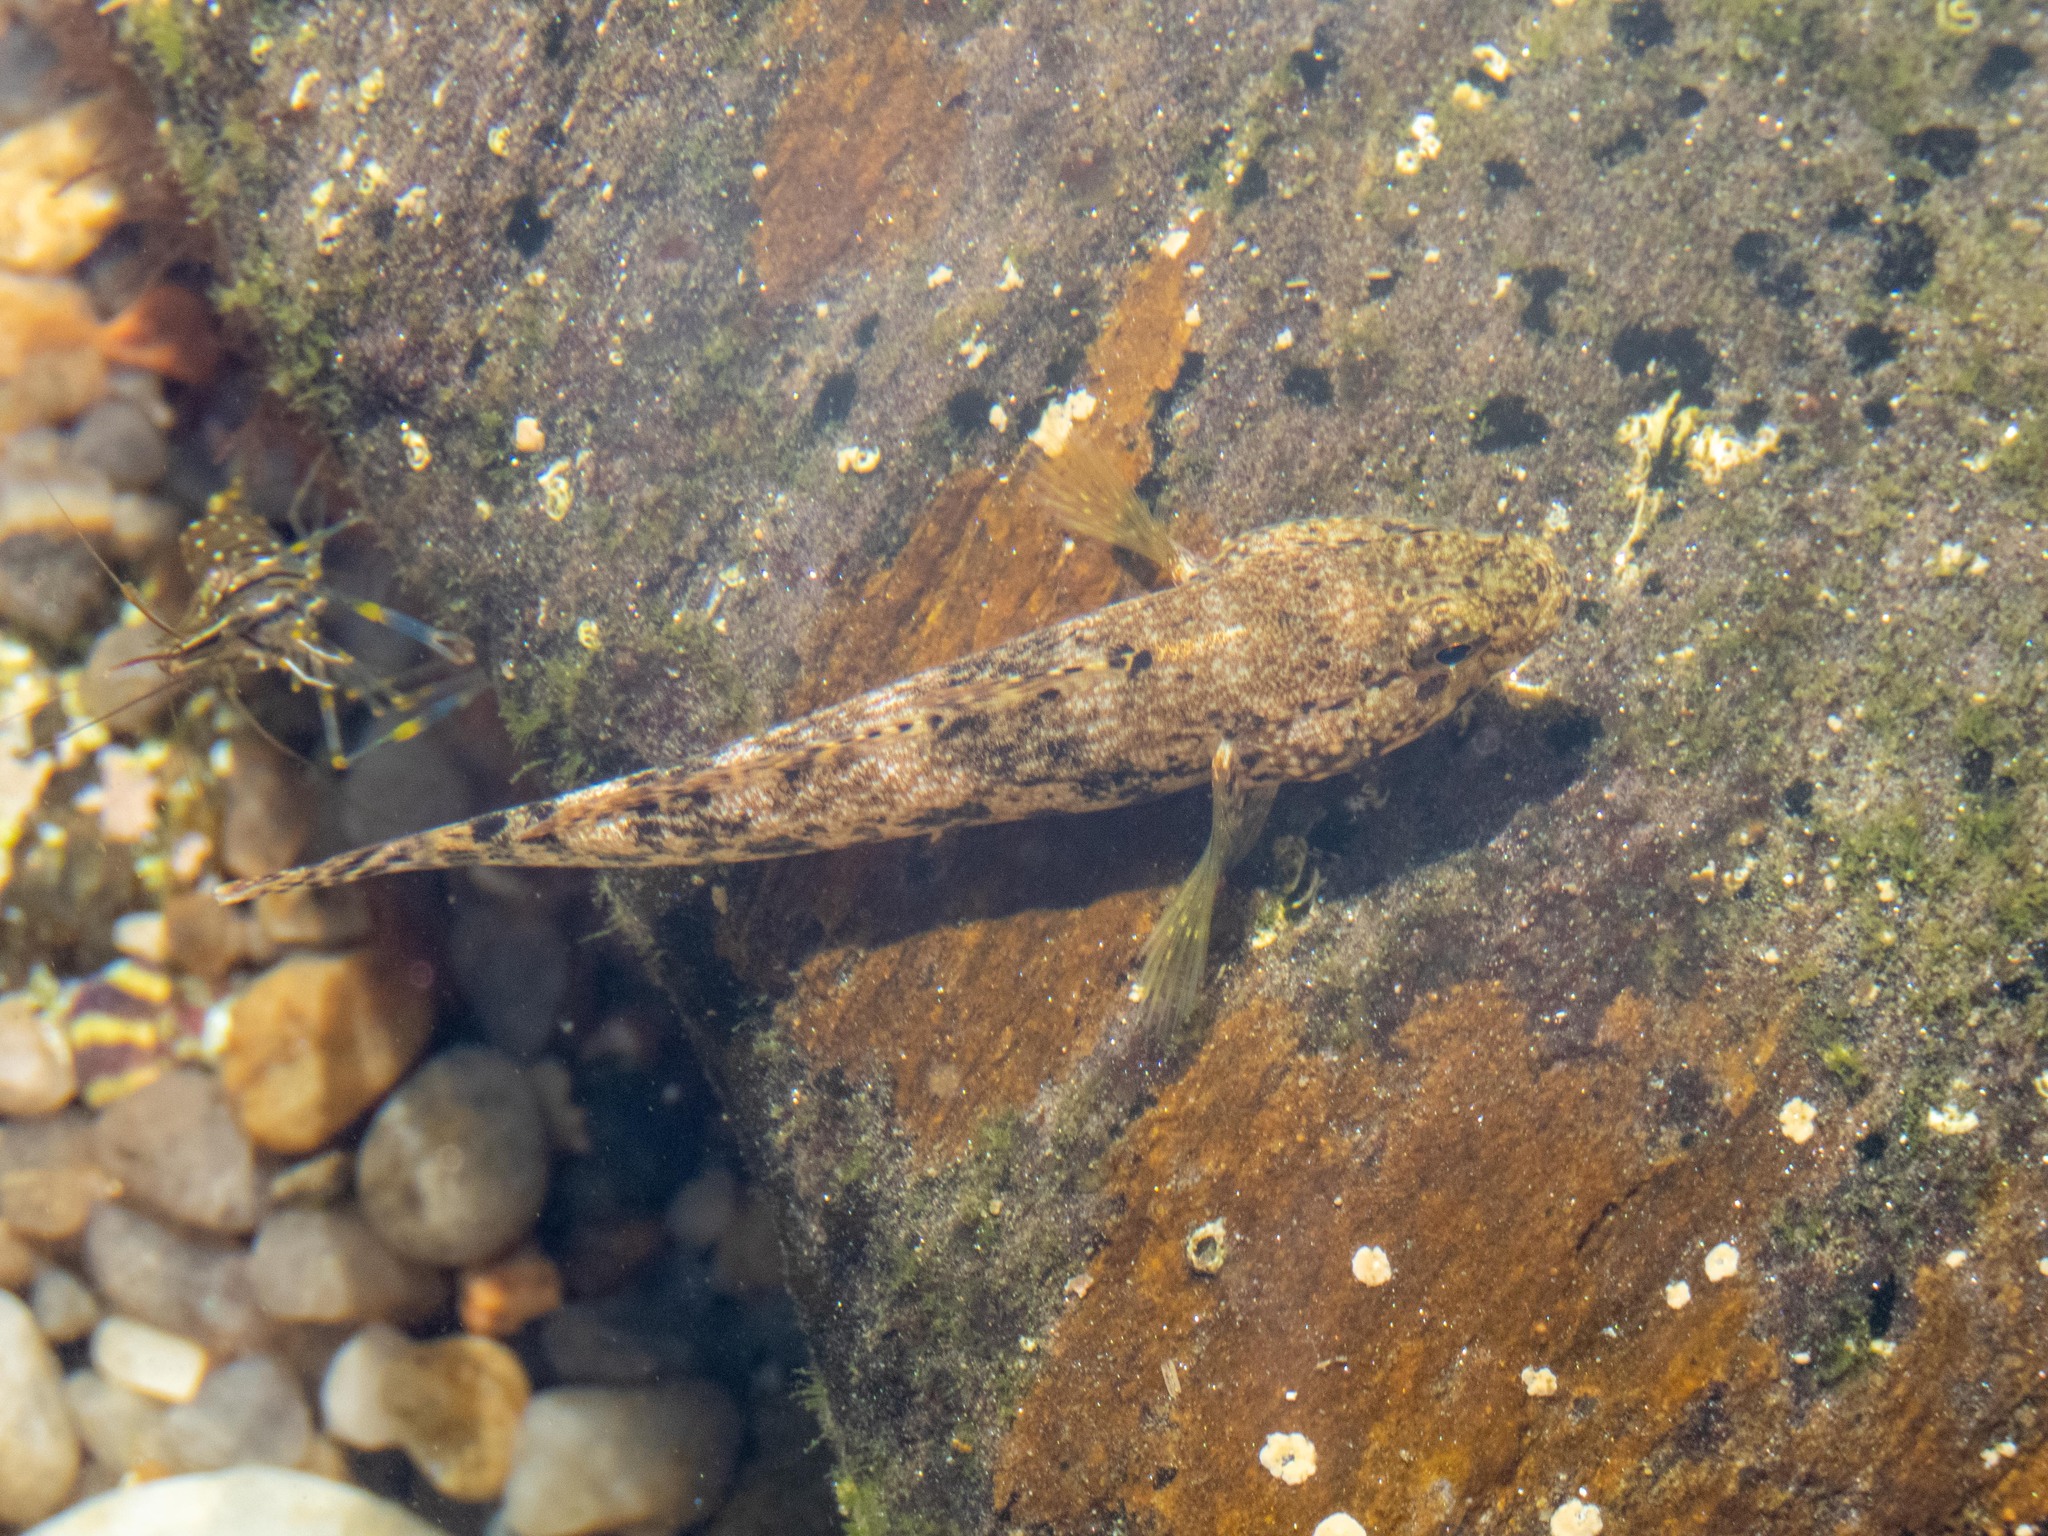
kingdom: Animalia
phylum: Chordata
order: Perciformes
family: Gobiidae
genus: Gobius
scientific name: Gobius cobitis
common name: Giant goby
